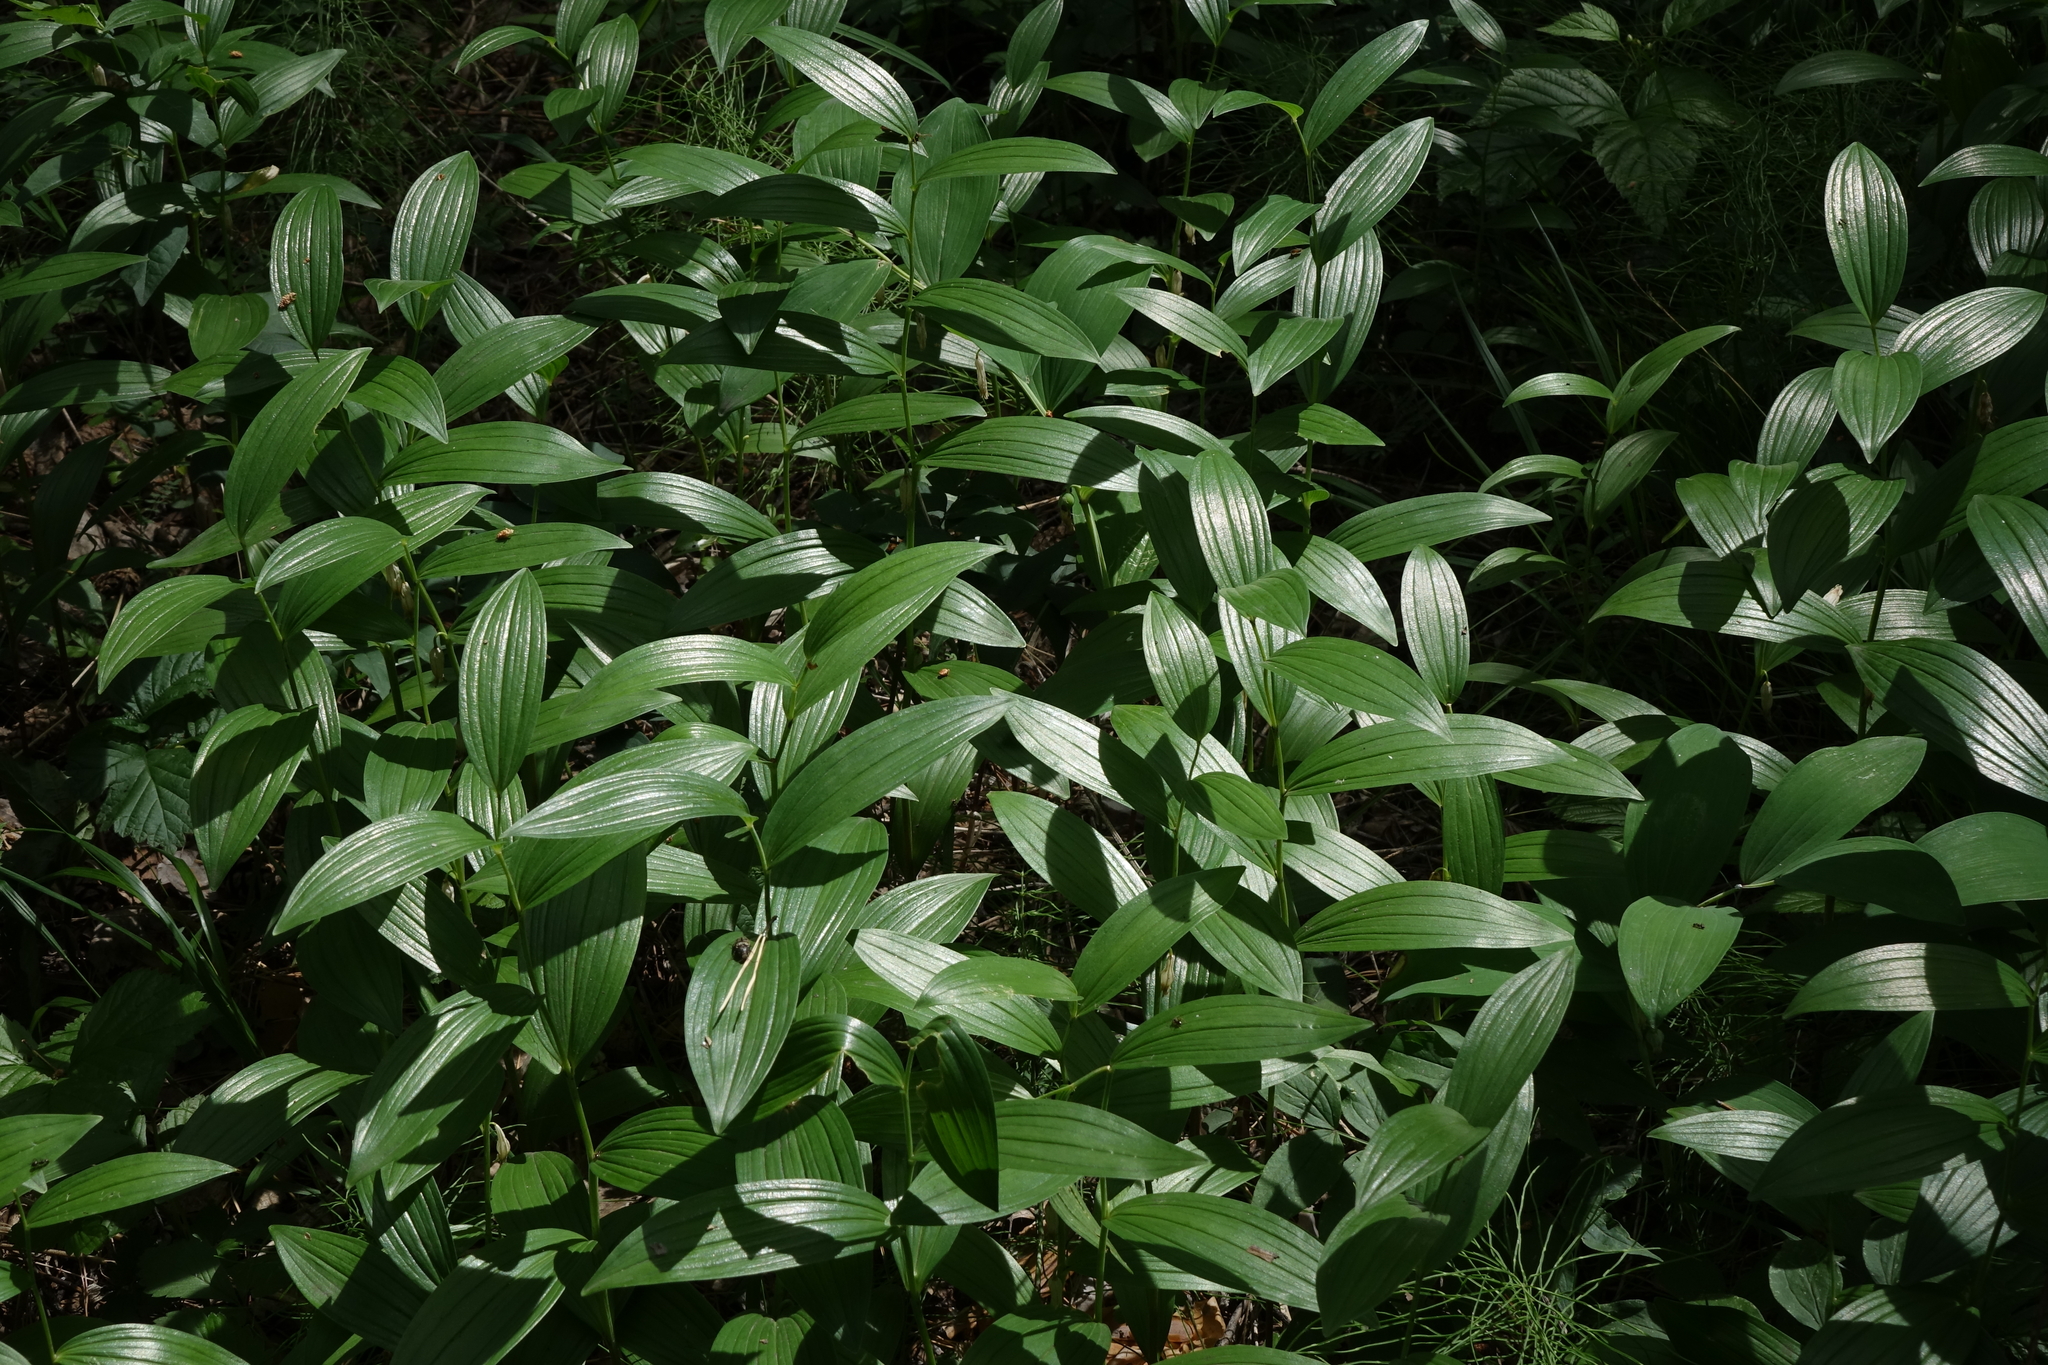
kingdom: Plantae
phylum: Tracheophyta
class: Liliopsida
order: Asparagales
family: Asparagaceae
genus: Polygonatum
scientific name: Polygonatum humile
